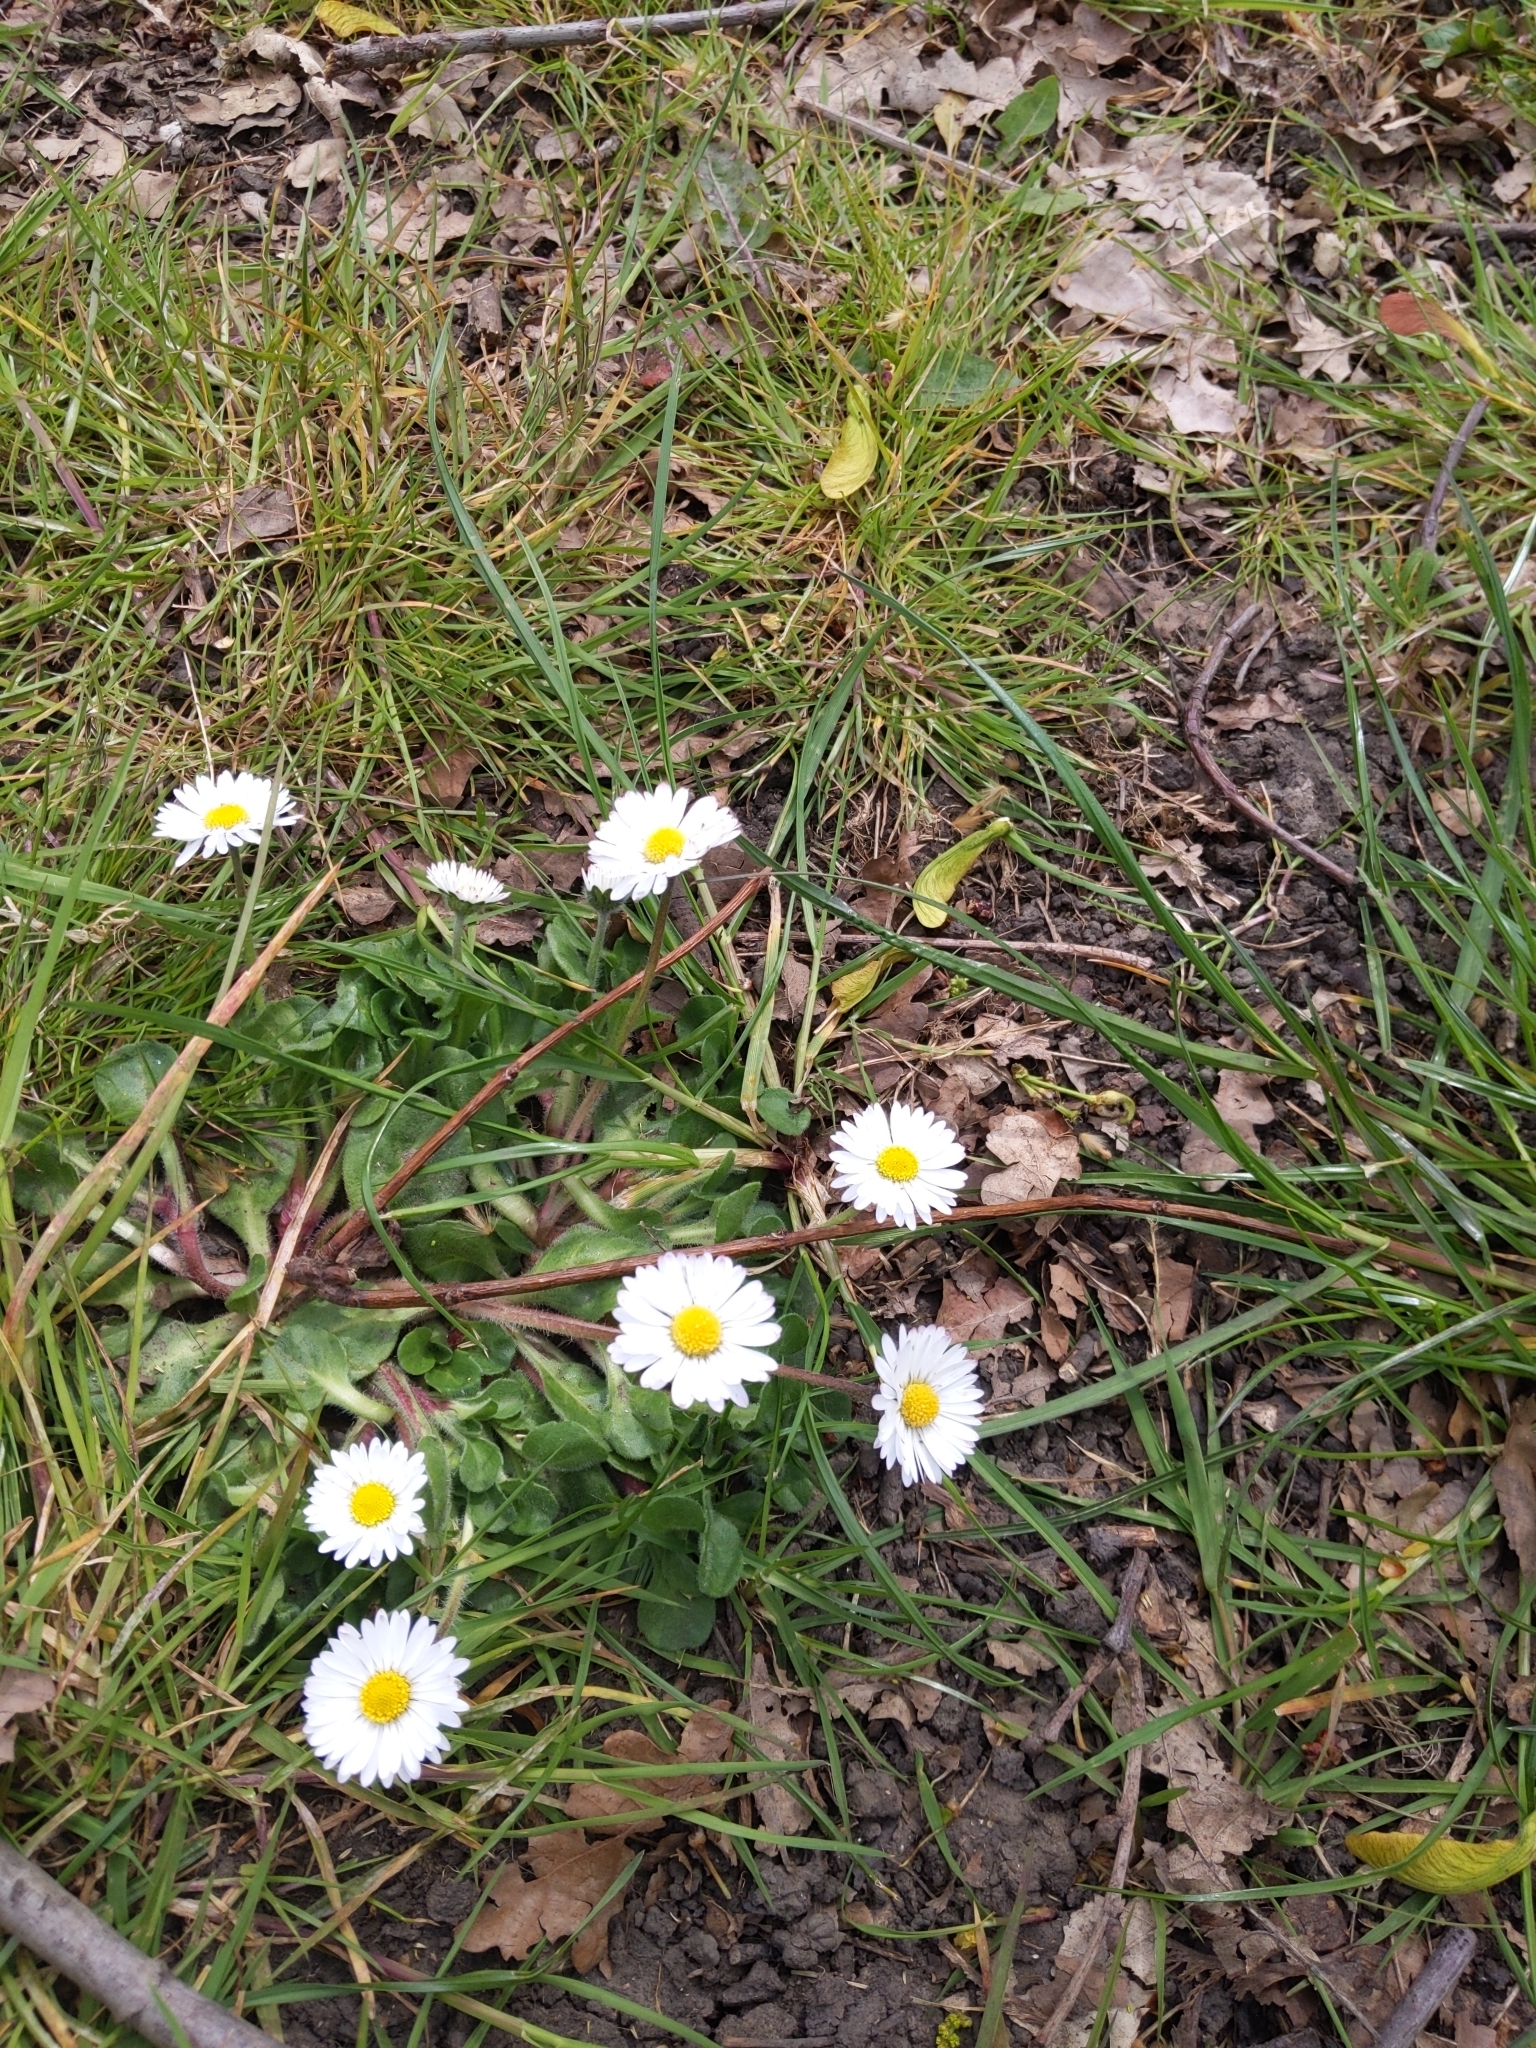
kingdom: Plantae
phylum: Tracheophyta
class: Magnoliopsida
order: Asterales
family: Asteraceae
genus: Bellis
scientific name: Bellis perennis
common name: Lawndaisy
